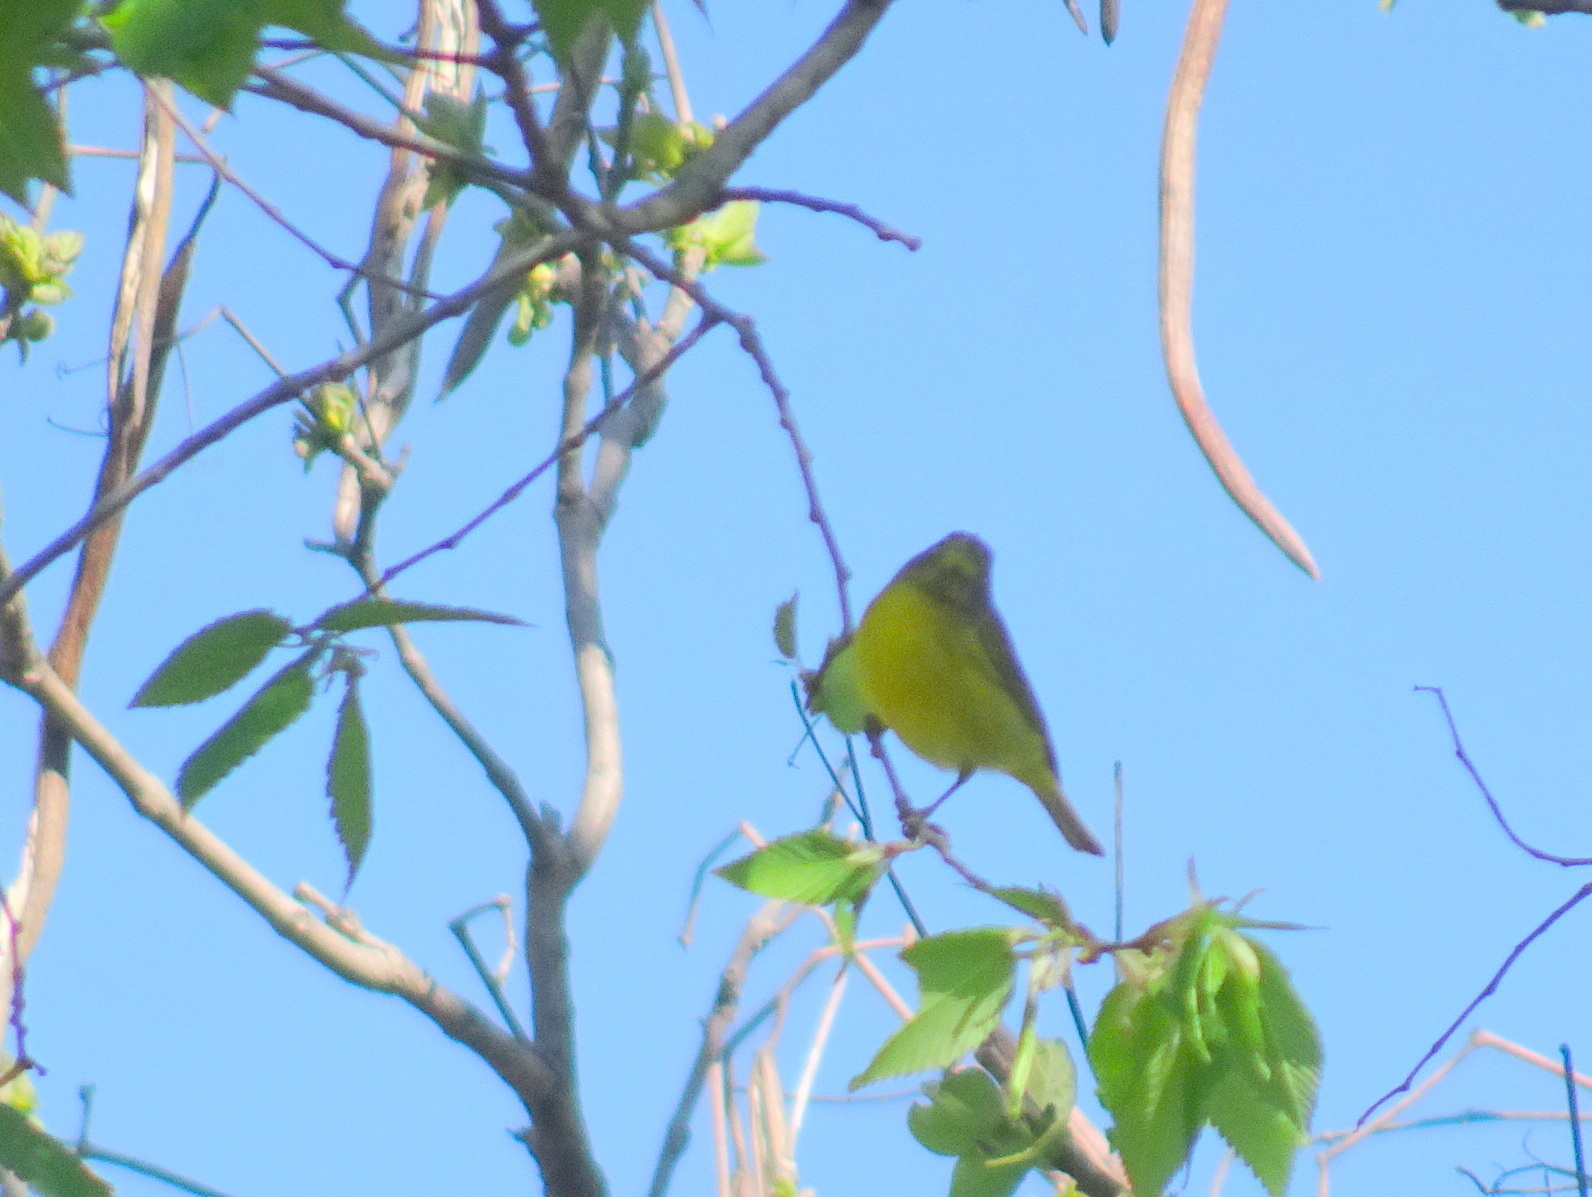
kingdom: Animalia
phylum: Chordata
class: Aves
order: Passeriformes
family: Parulidae
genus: Leiothlypis
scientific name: Leiothlypis ruficapilla
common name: Nashville warbler
